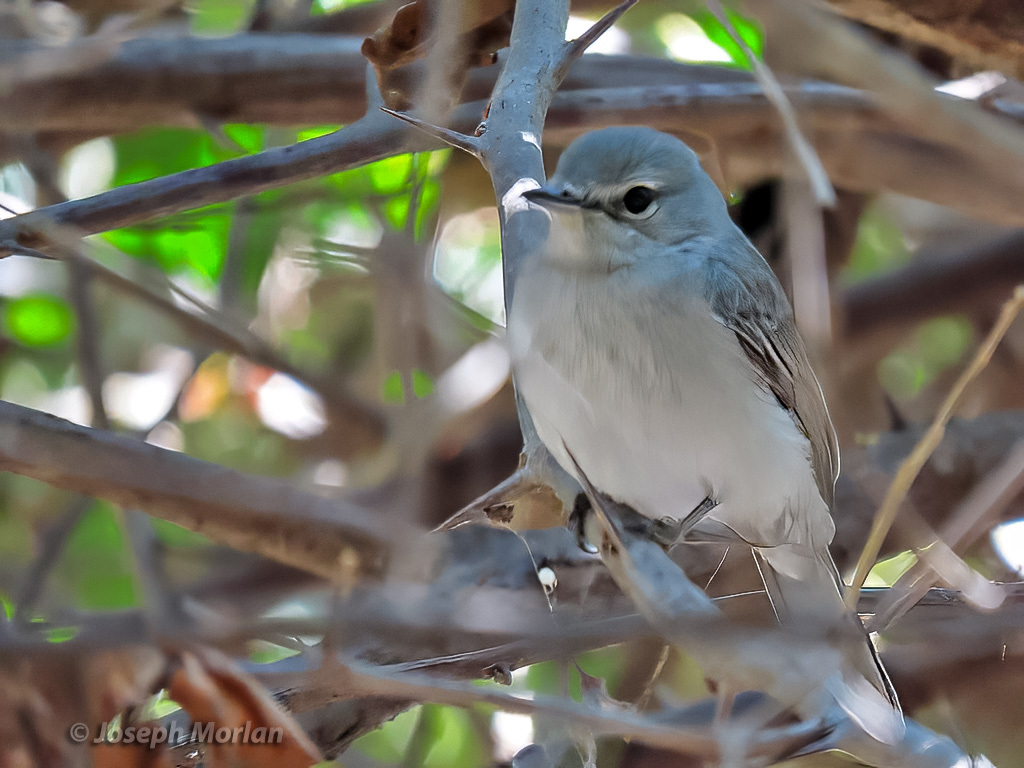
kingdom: Animalia
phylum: Chordata
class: Aves
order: Passeriformes
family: Muscicapidae
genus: Muscicapa
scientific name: Muscicapa caerulescens
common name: Ashy flycatcher
